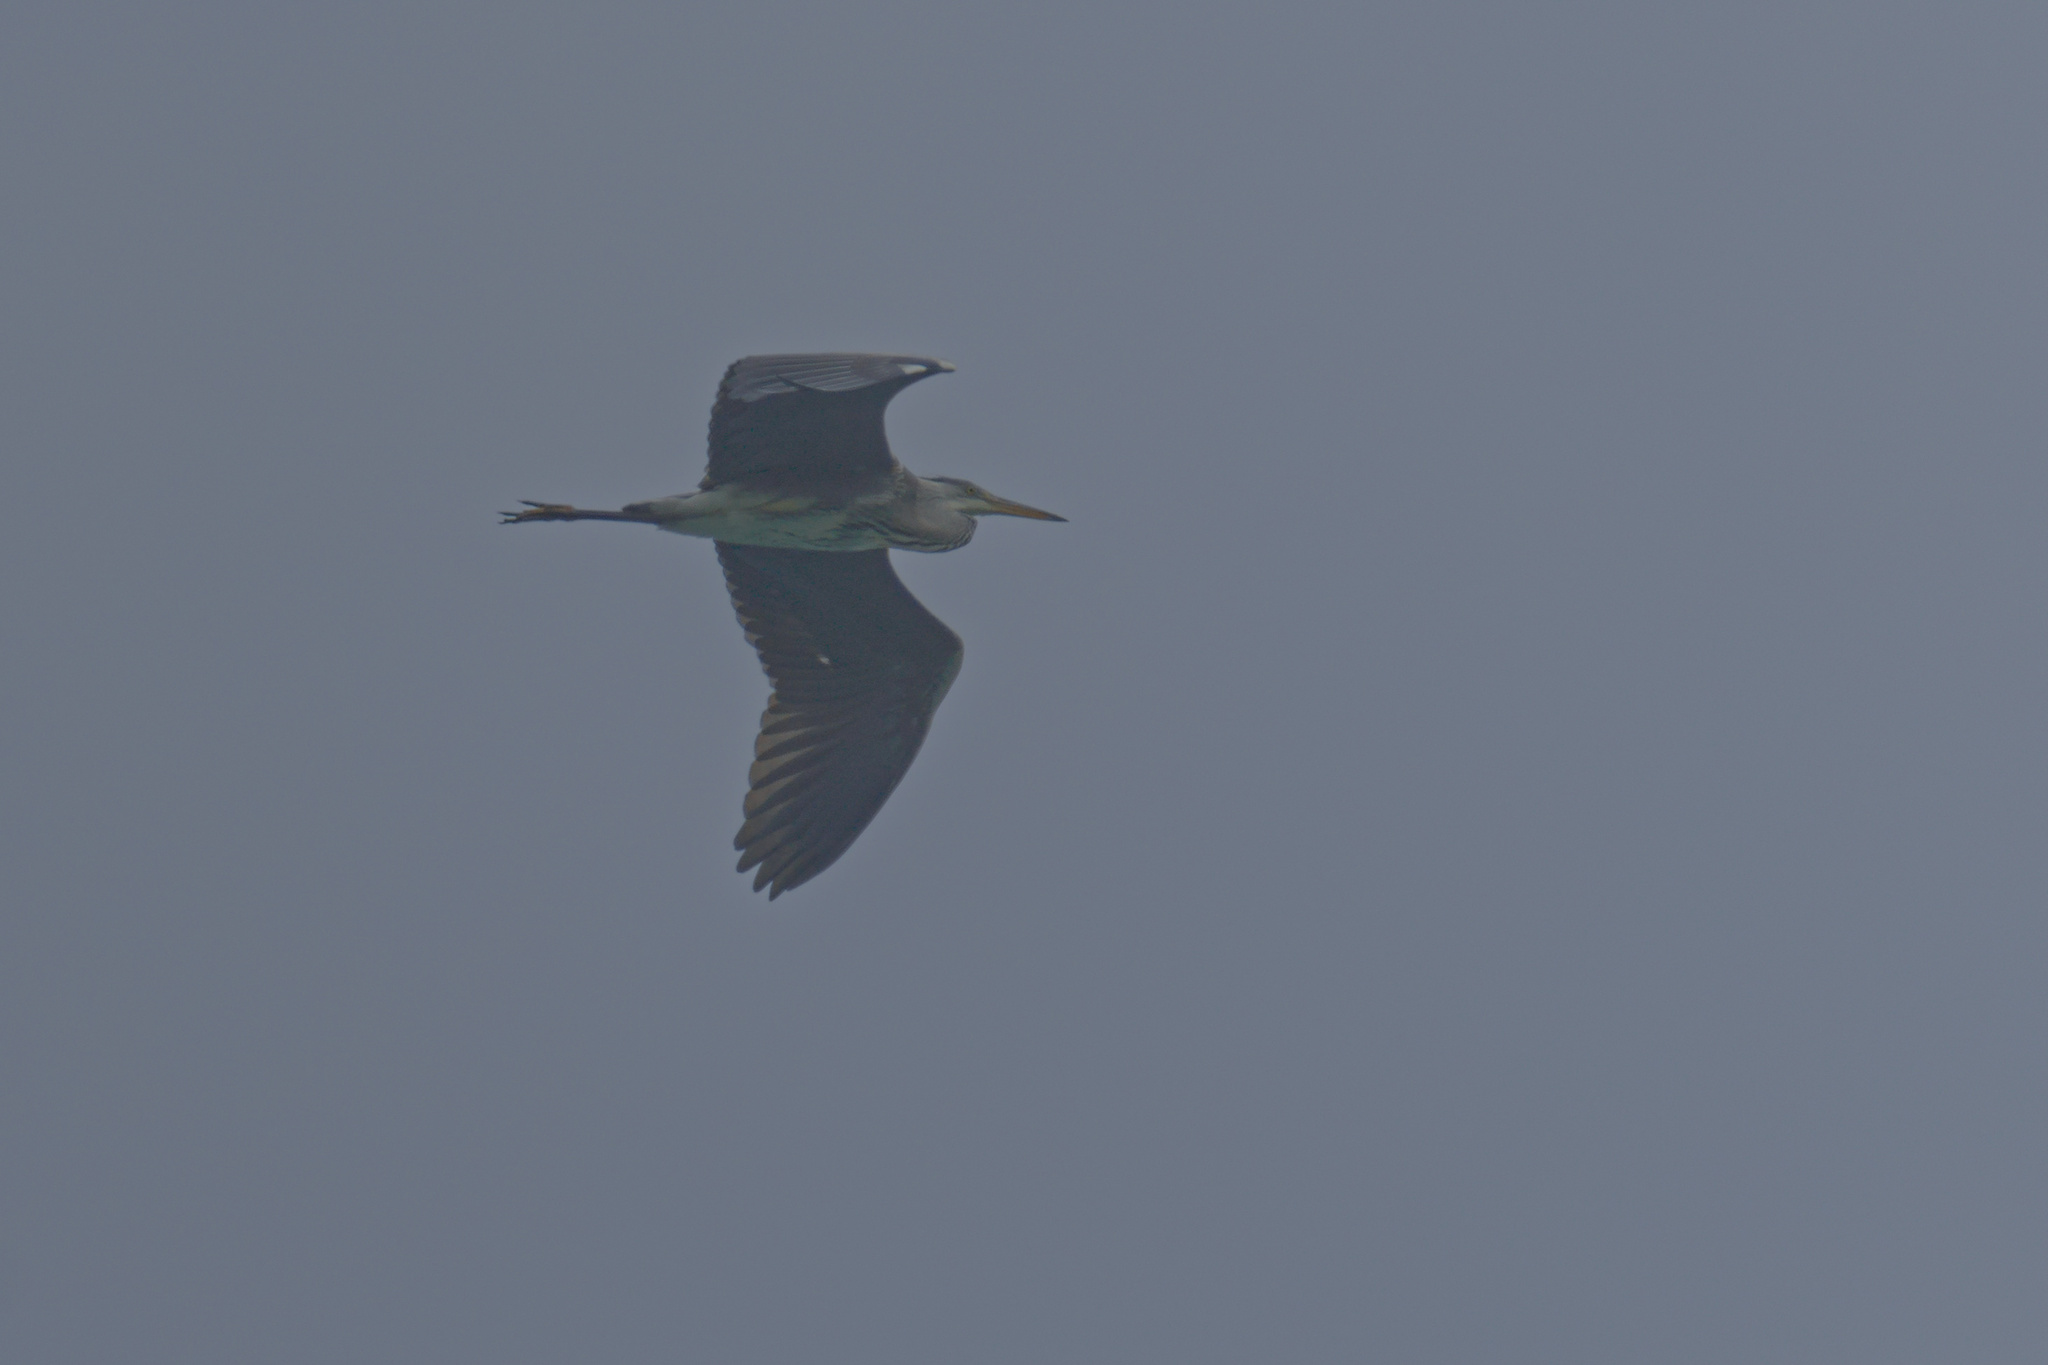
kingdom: Animalia
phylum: Chordata
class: Aves
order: Pelecaniformes
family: Ardeidae
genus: Ardea
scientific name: Ardea cinerea
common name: Grey heron
